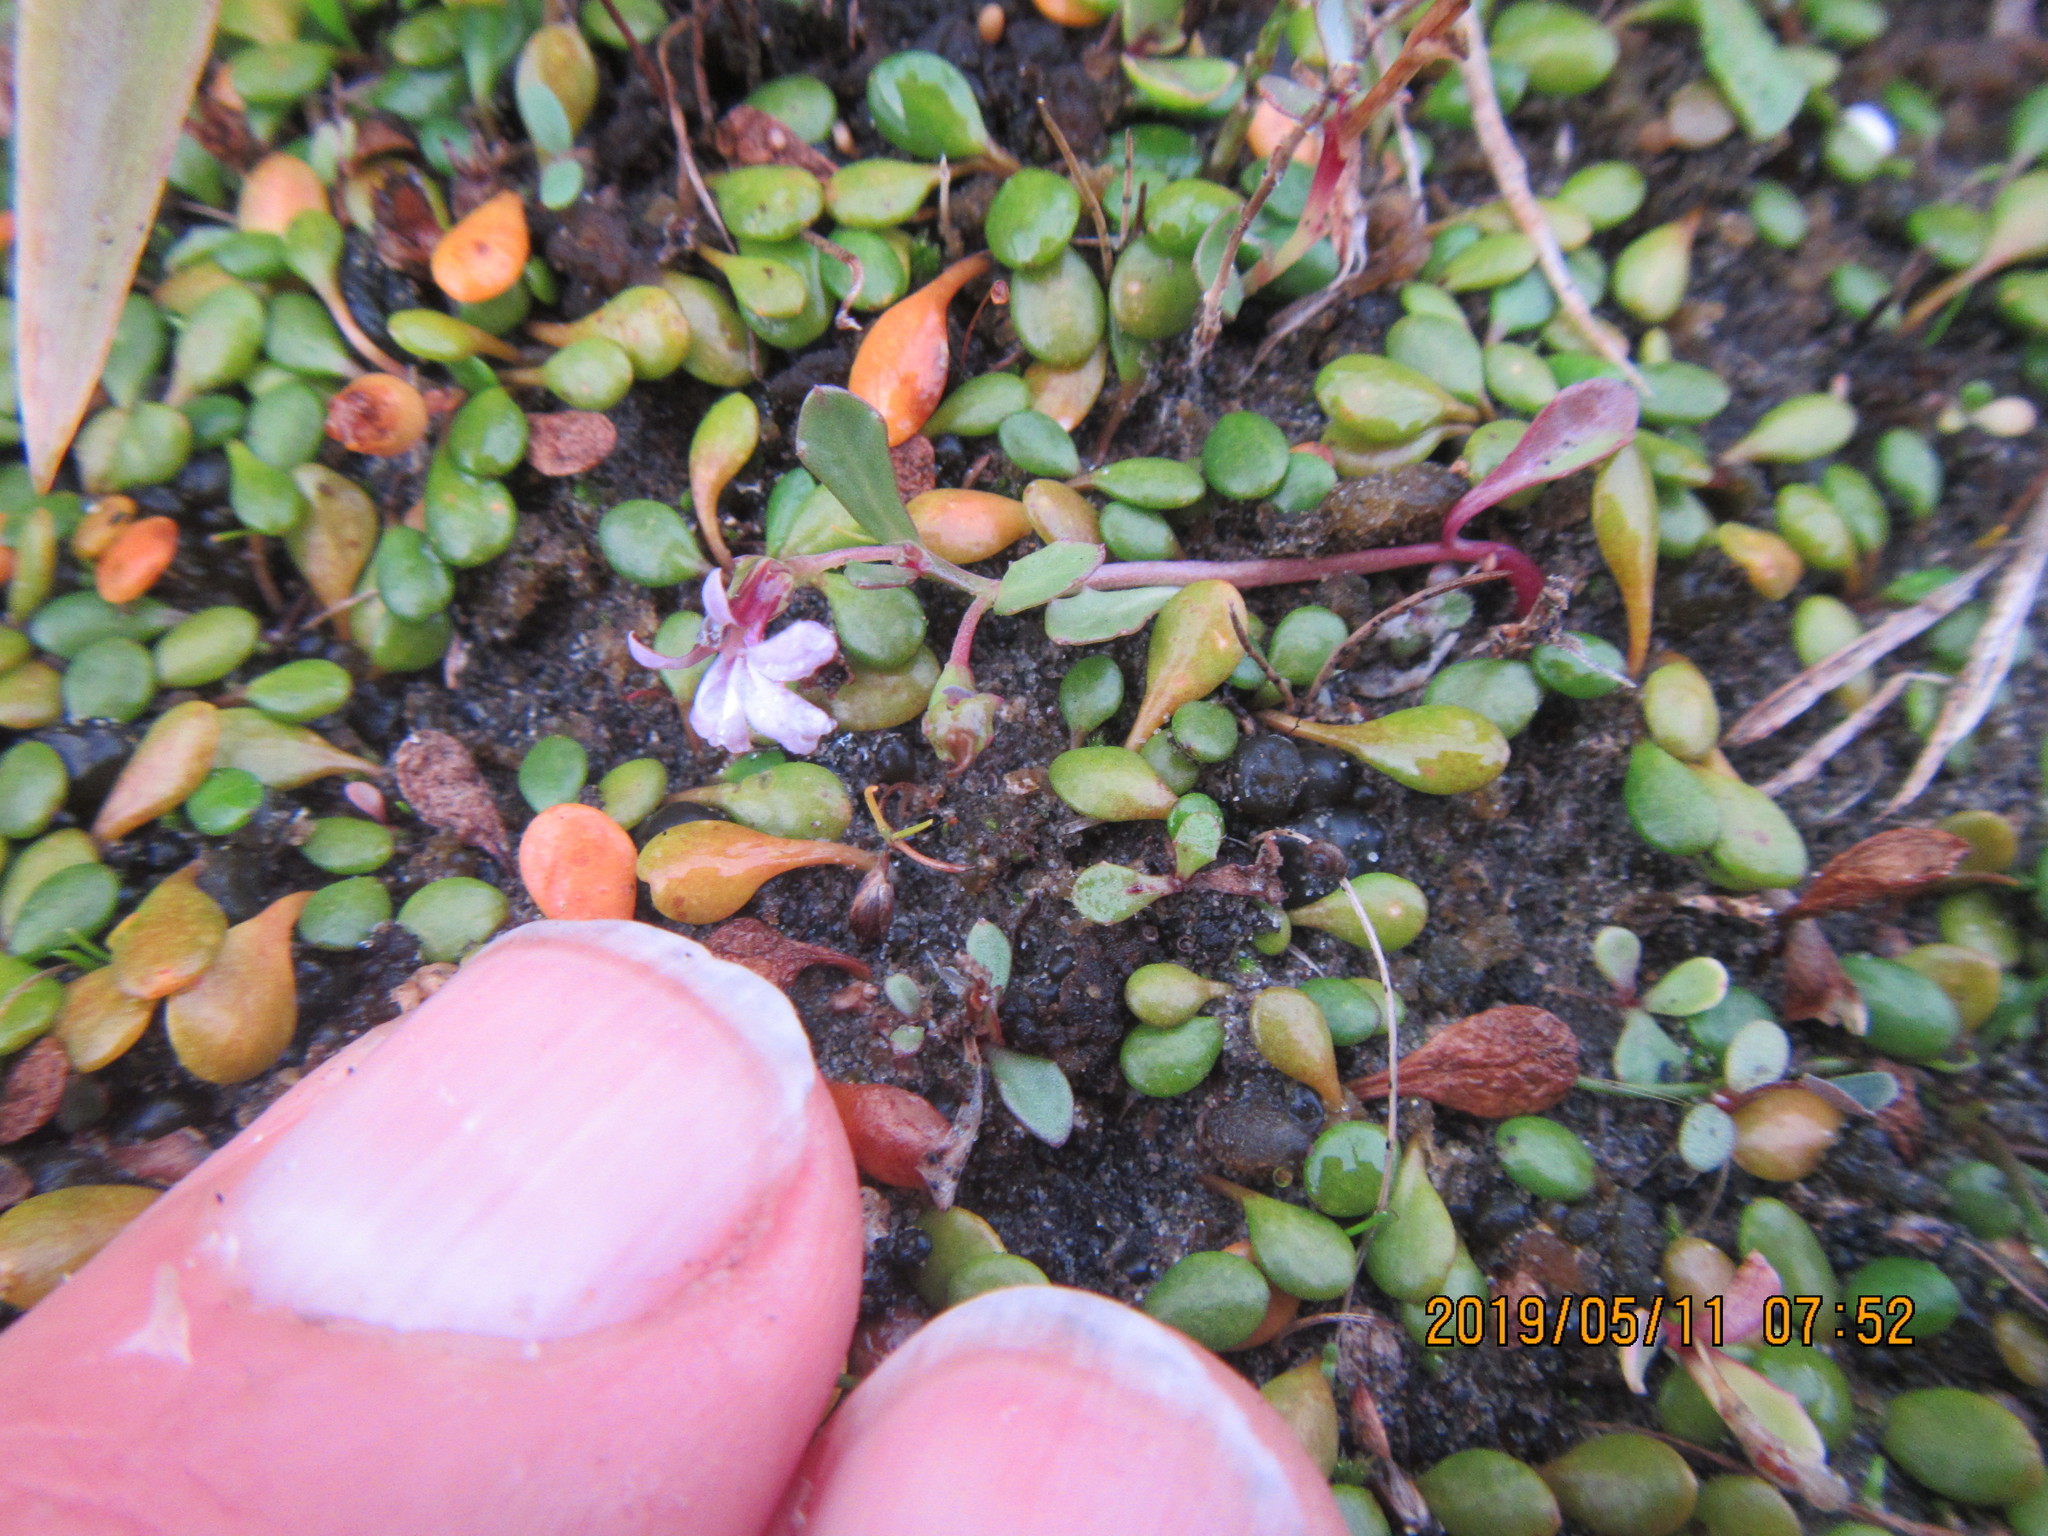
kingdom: Plantae
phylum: Tracheophyta
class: Magnoliopsida
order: Asterales
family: Campanulaceae
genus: Lobelia
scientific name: Lobelia anceps
